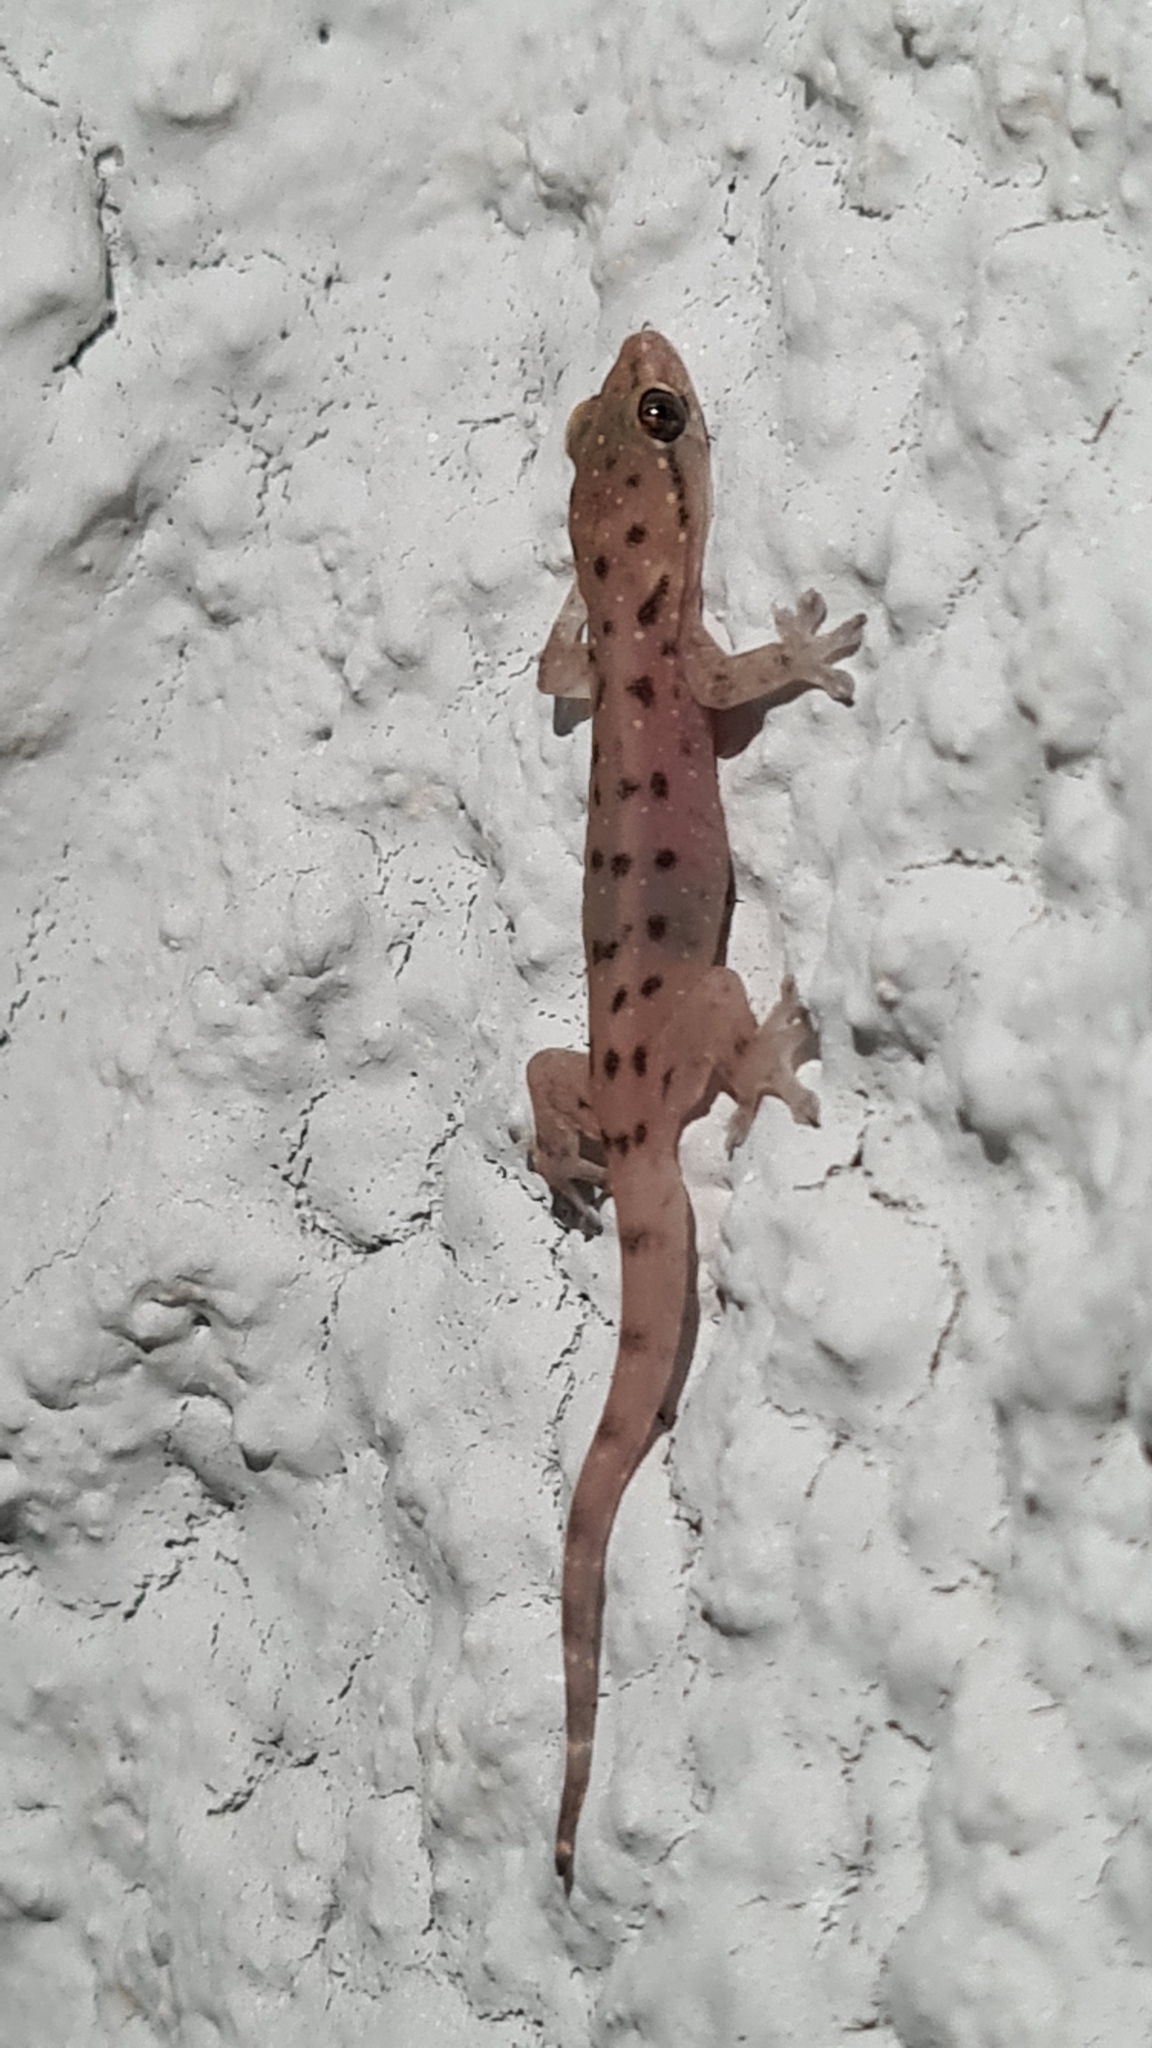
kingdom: Animalia
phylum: Chordata
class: Squamata
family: Gekkonidae
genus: Gehyra
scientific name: Gehyra mutilata
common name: Stump-toed gecko
